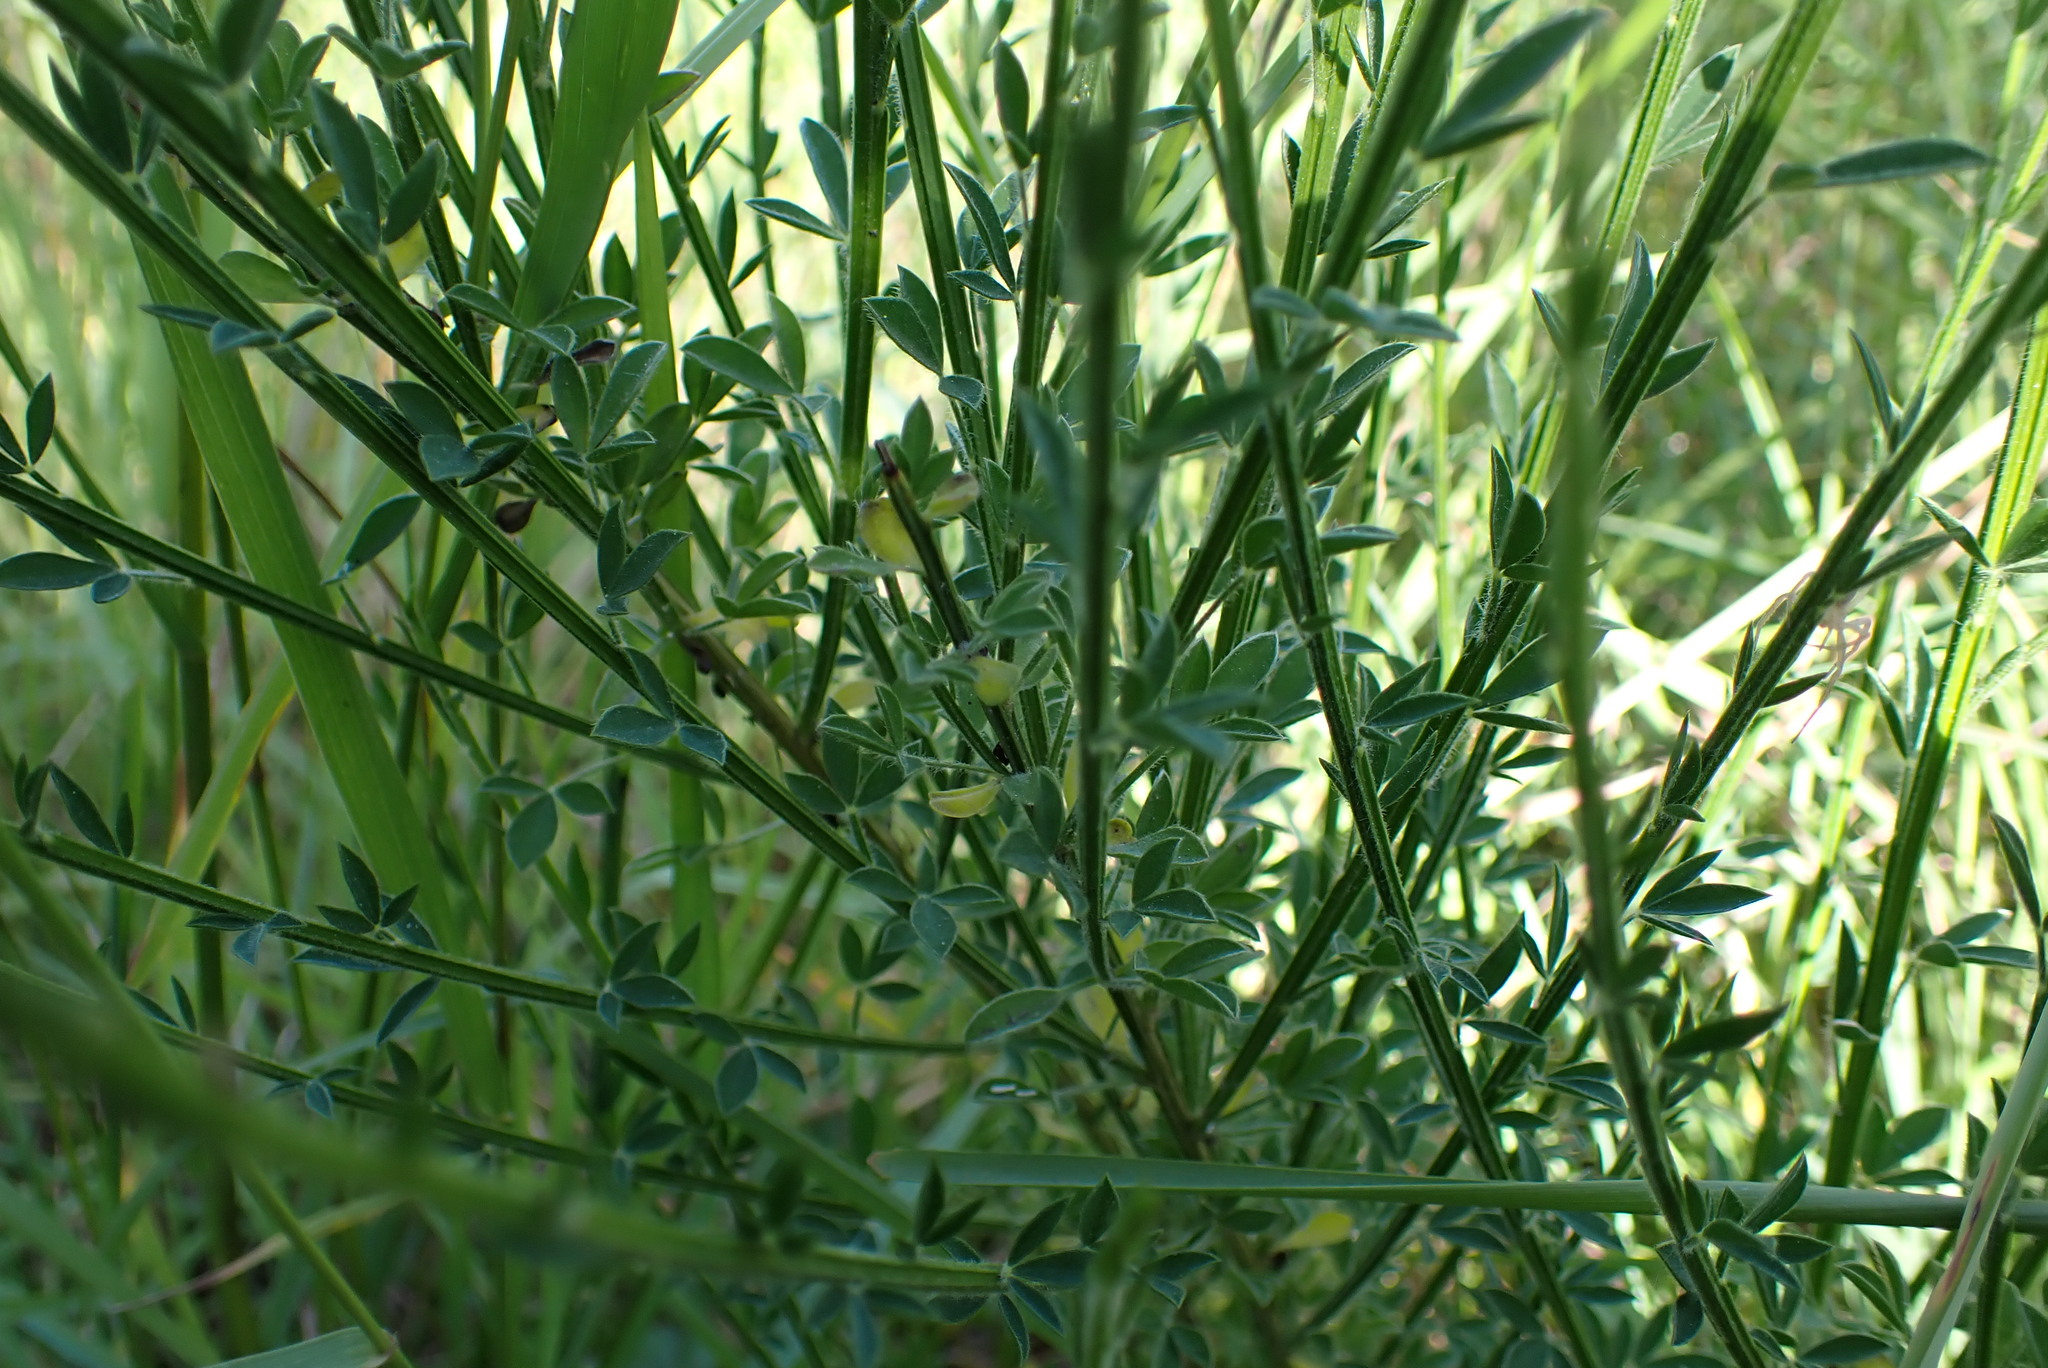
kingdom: Plantae
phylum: Tracheophyta
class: Magnoliopsida
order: Fabales
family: Fabaceae
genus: Cytisus
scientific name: Cytisus scoparius
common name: Scotch broom
